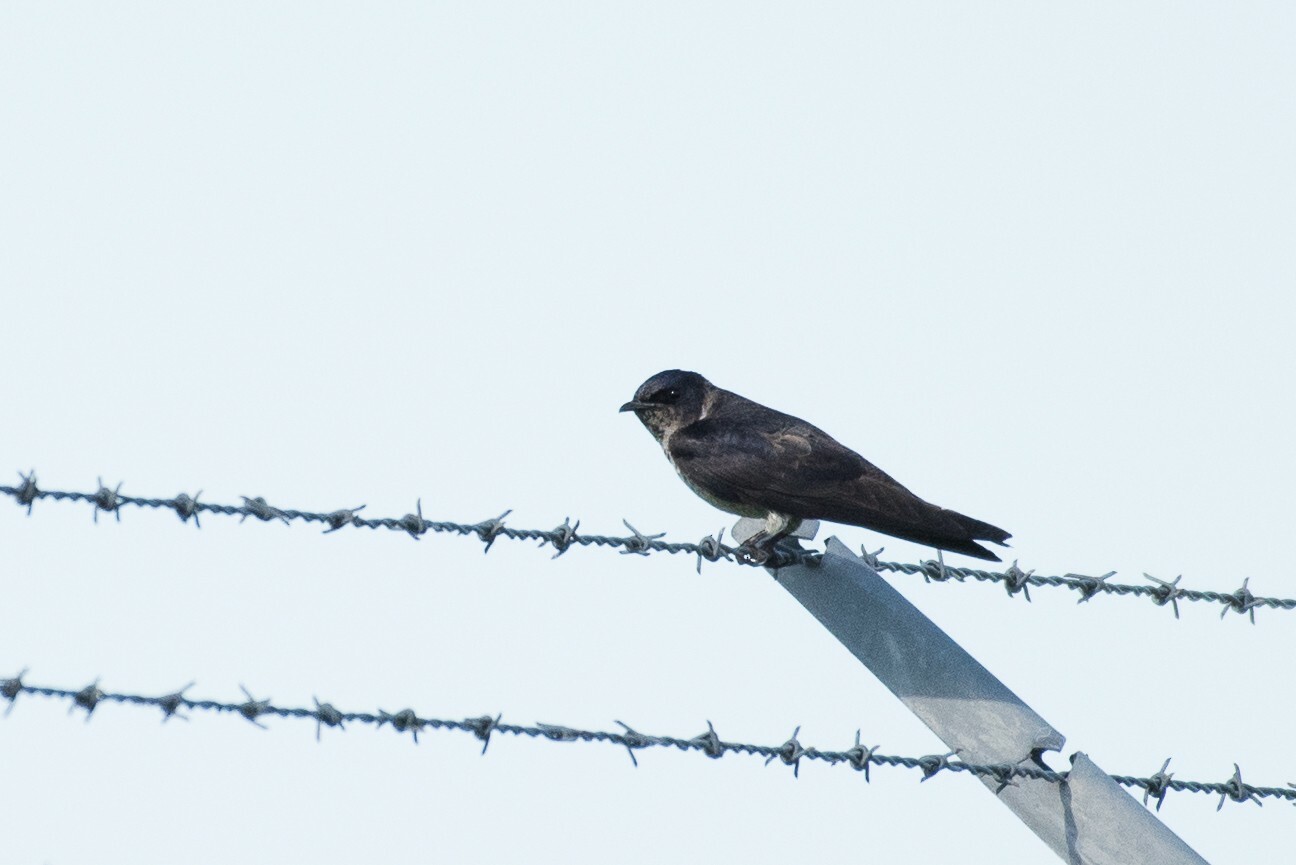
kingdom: Animalia
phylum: Chordata
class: Aves
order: Passeriformes
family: Hirundinidae
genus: Progne
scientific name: Progne subis
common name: Purple martin
